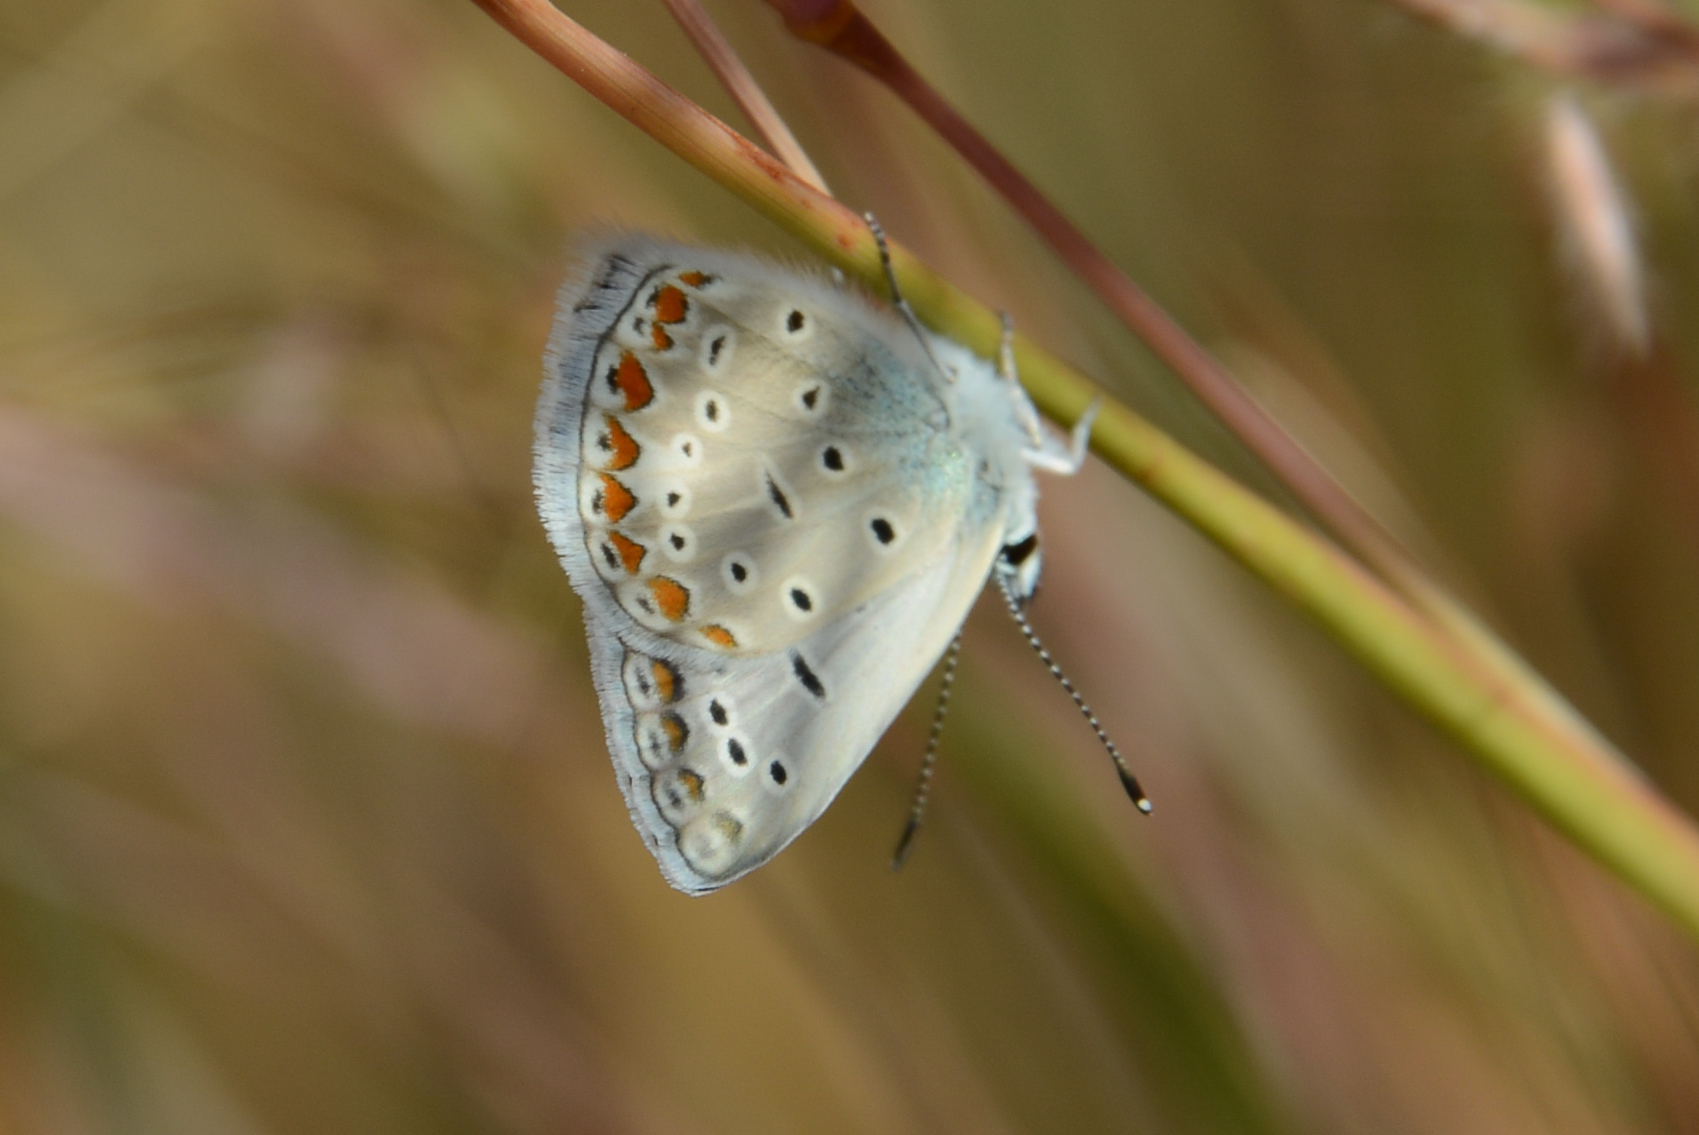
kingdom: Animalia
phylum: Arthropoda
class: Insecta
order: Lepidoptera
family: Lycaenidae
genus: Polyommatus
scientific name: Polyommatus icarus
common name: Common blue
